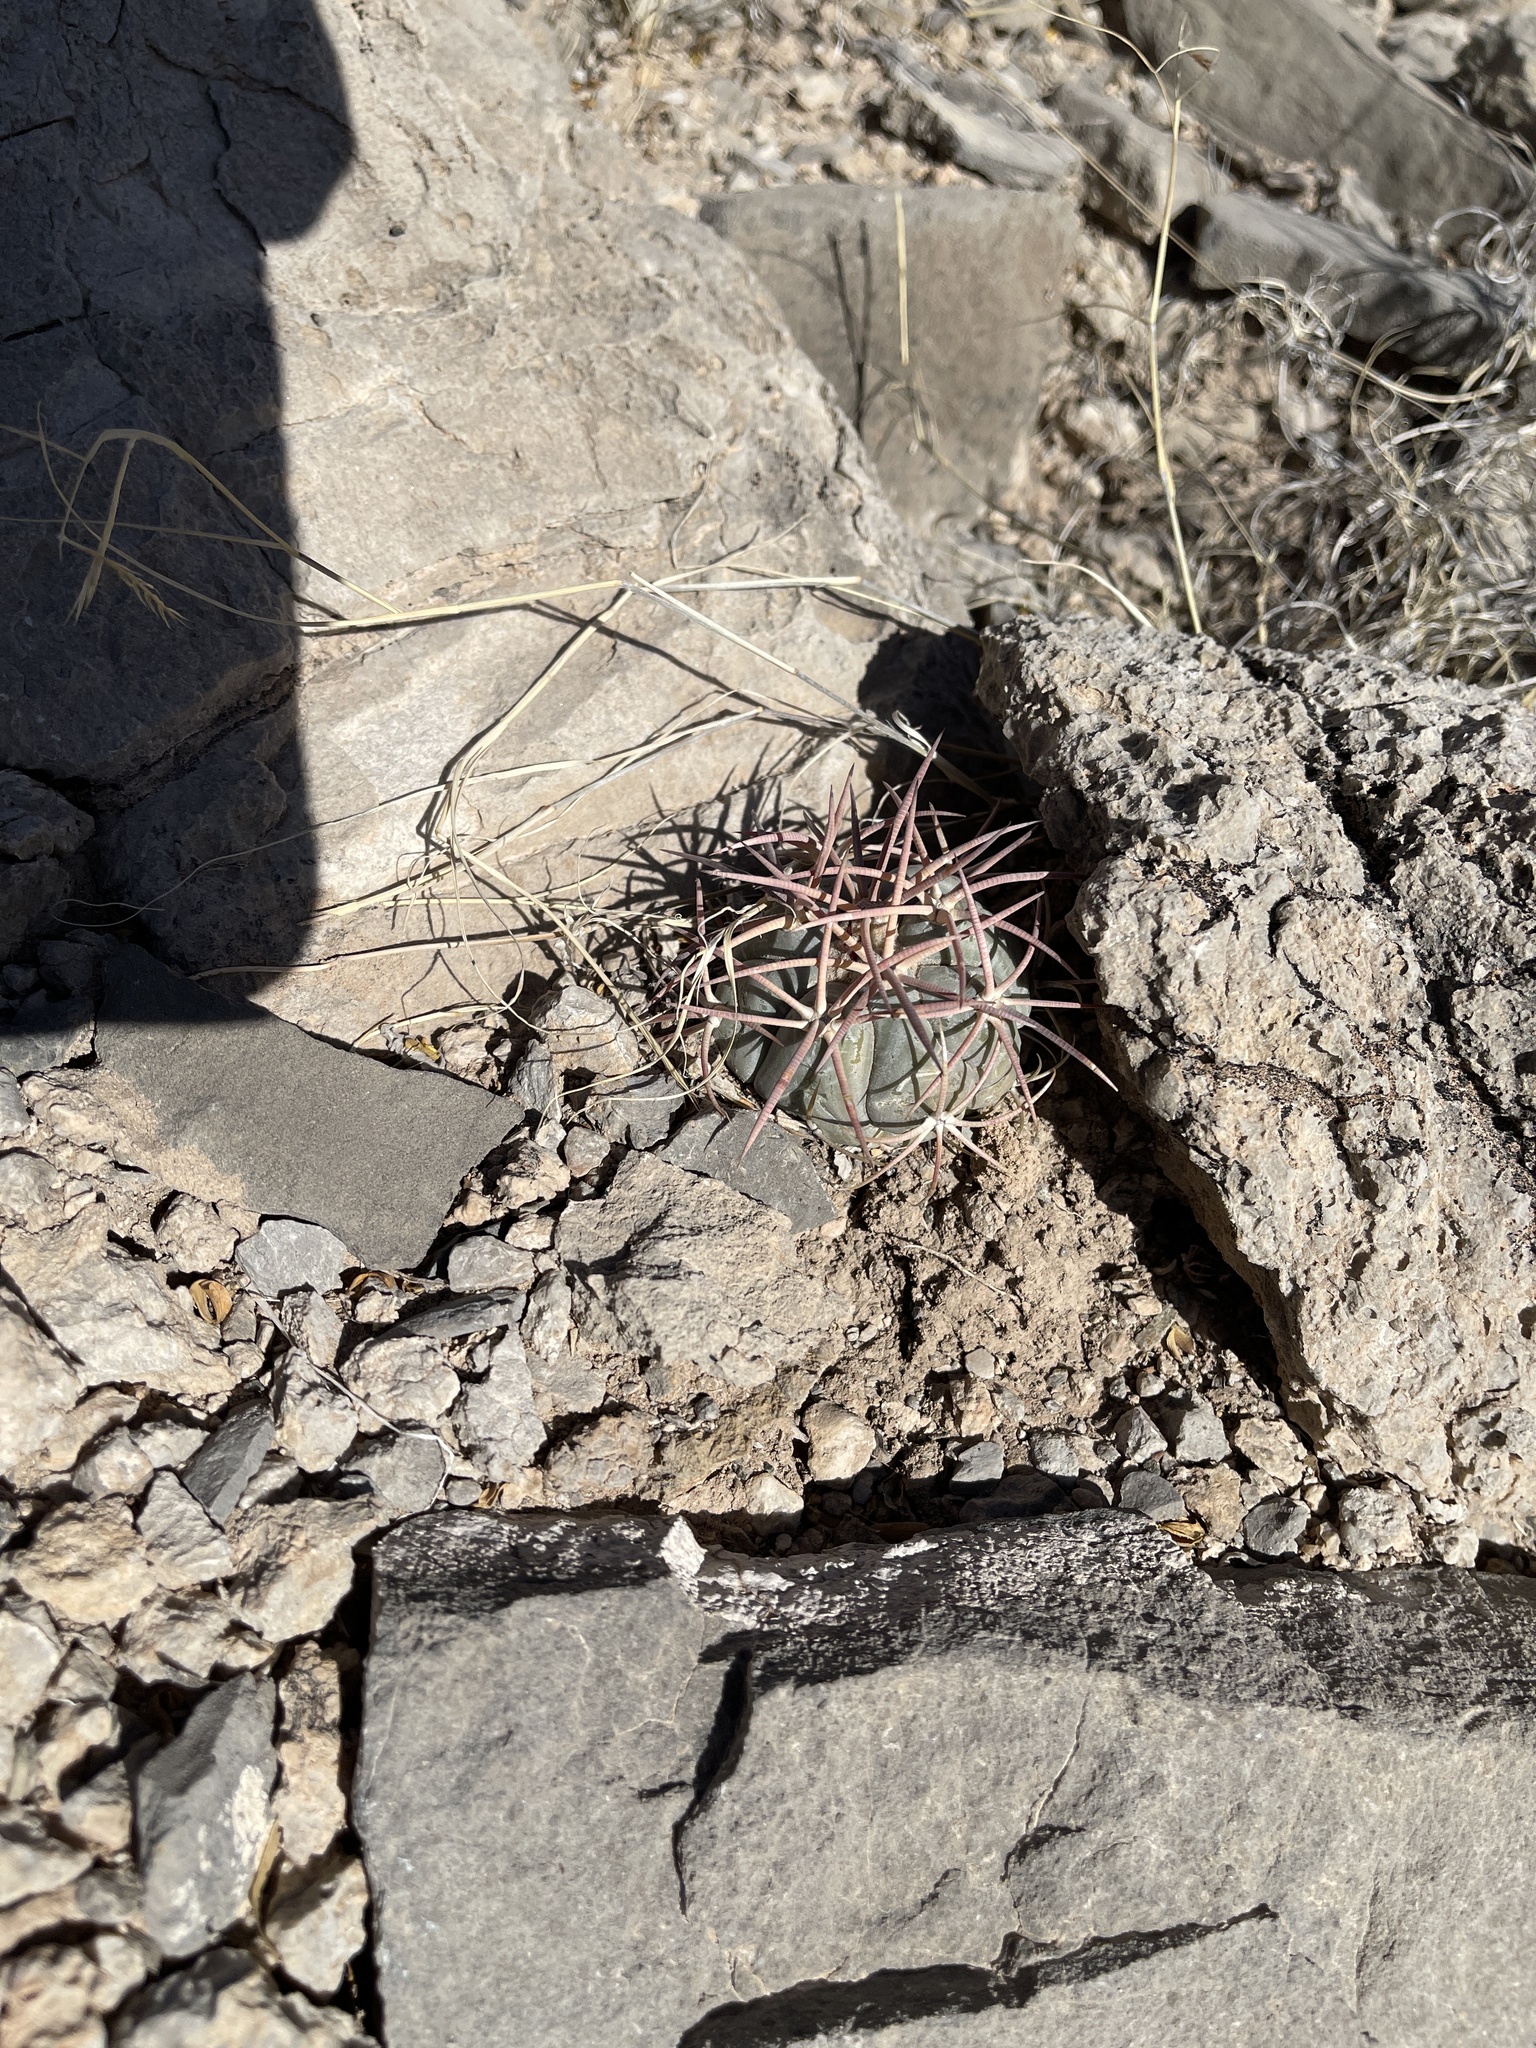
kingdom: Plantae
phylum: Tracheophyta
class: Magnoliopsida
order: Caryophyllales
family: Cactaceae
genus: Echinocactus
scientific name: Echinocactus horizonthalonius
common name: Devilshead
